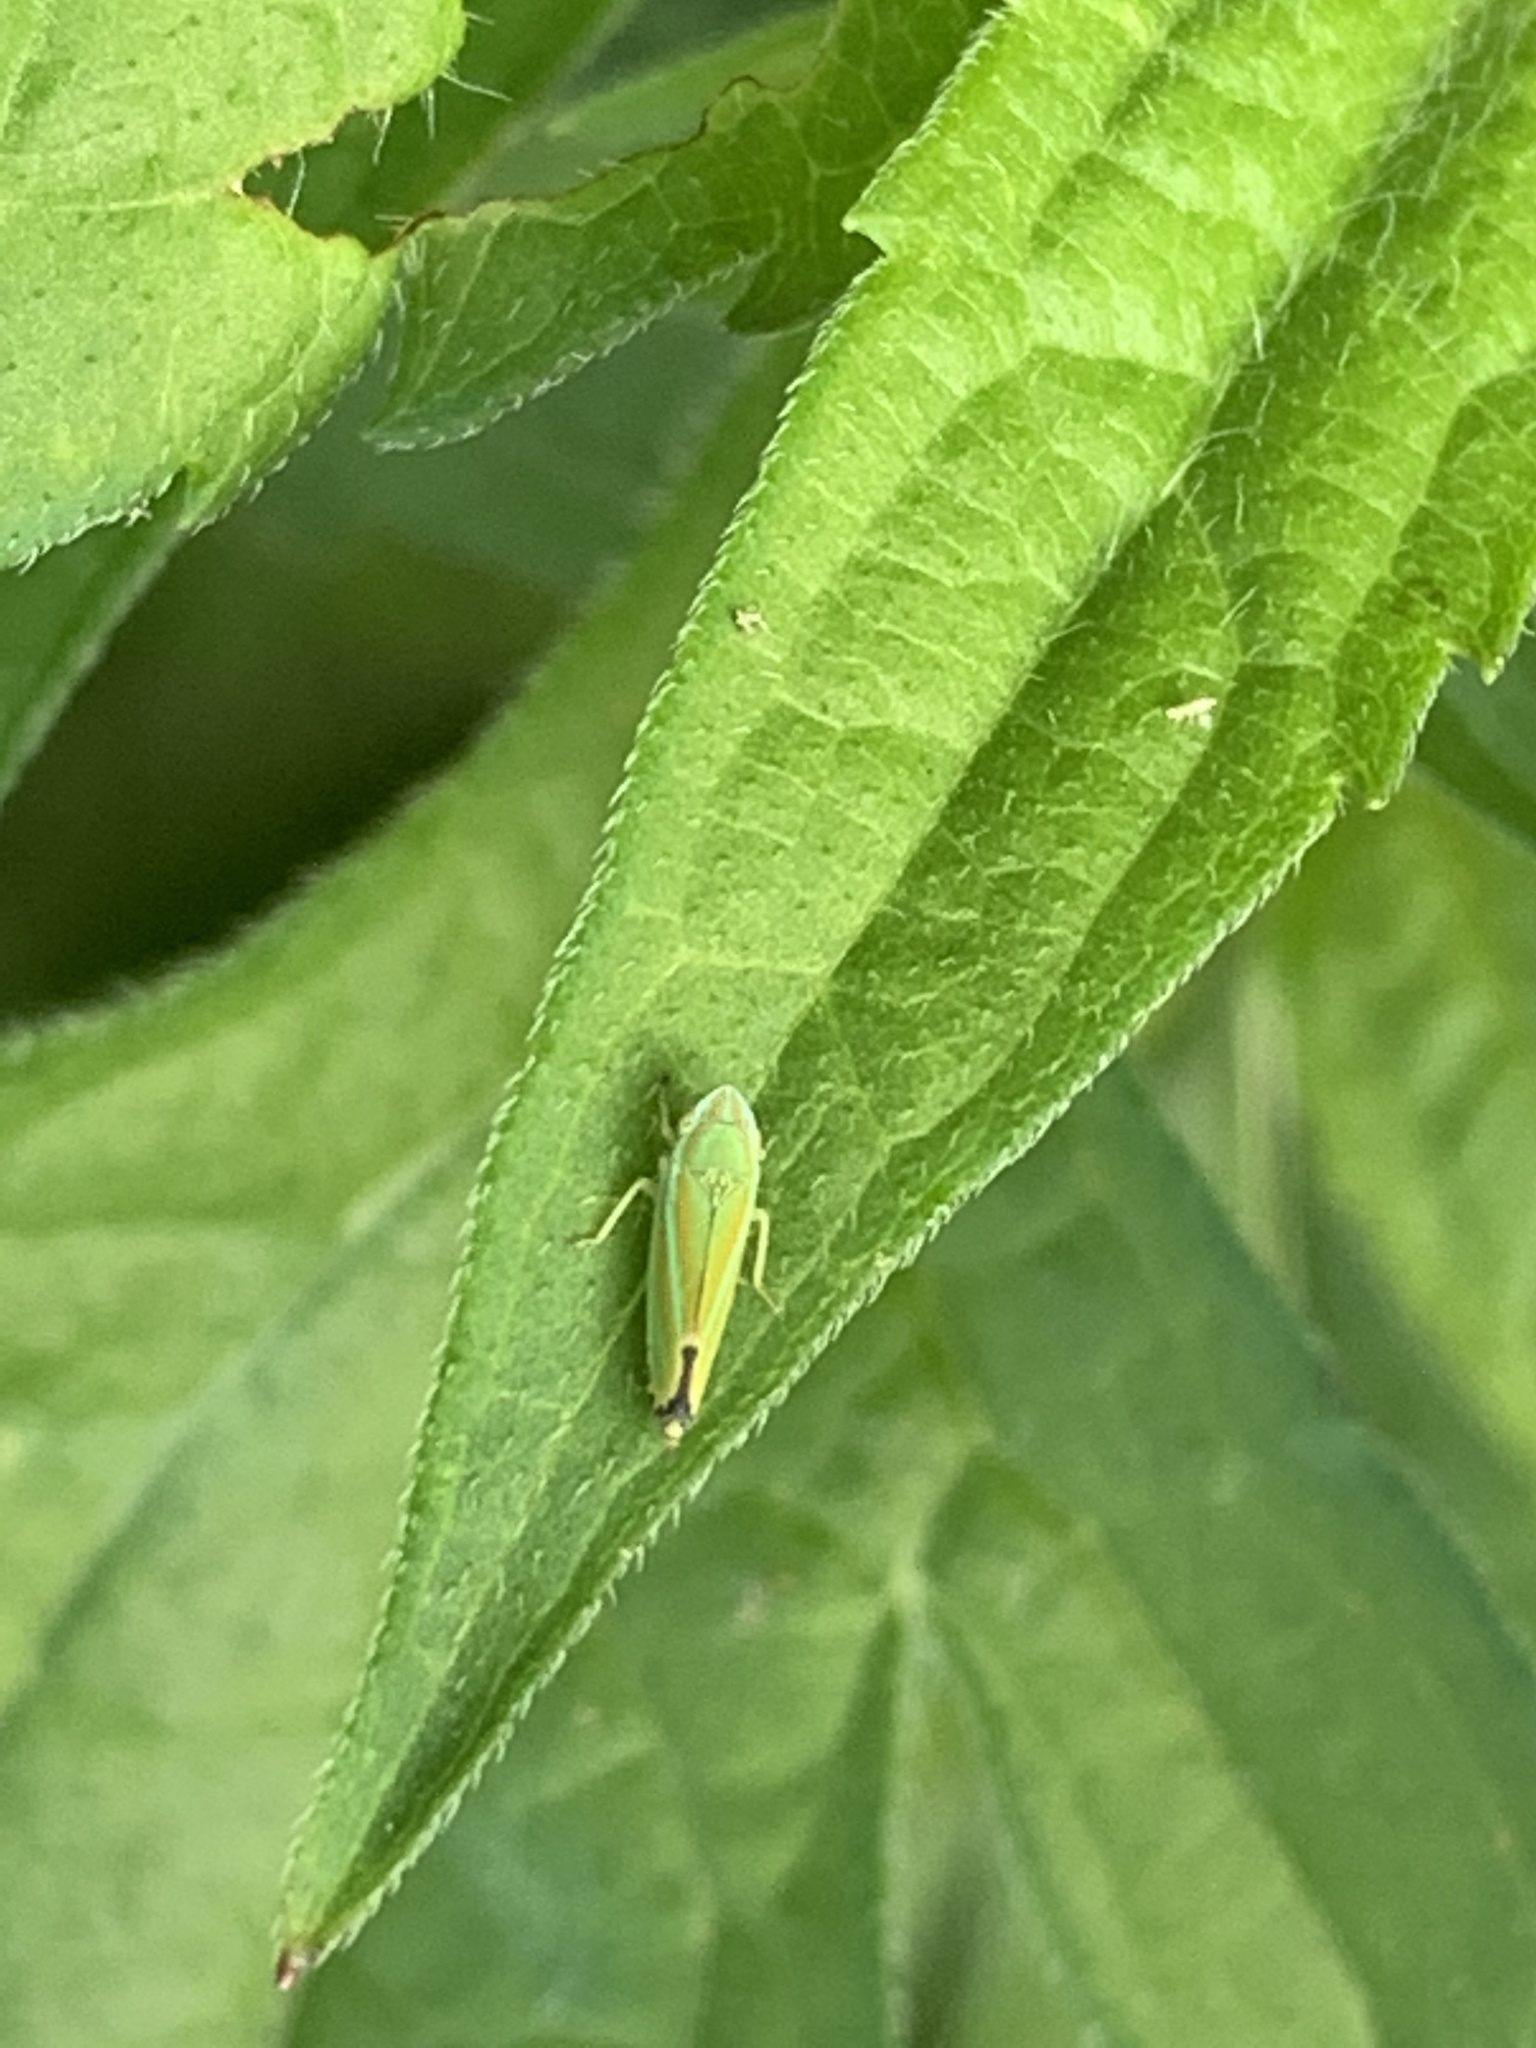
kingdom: Animalia
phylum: Arthropoda
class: Insecta
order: Hemiptera
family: Cicadellidae
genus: Graphocephala
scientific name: Graphocephala versuta
